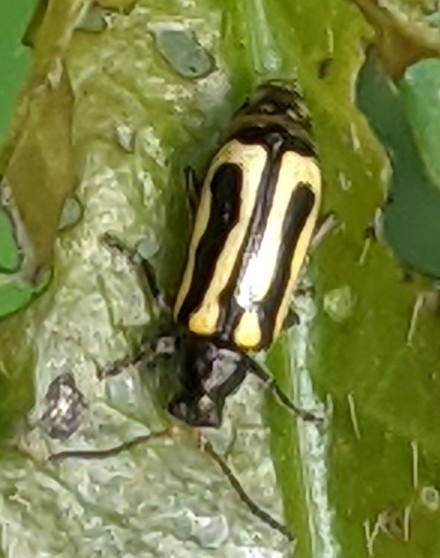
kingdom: Animalia
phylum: Arthropoda
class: Insecta
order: Coleoptera
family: Chrysomelidae
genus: Agasicles
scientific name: Agasicles hygrophila
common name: Alligatorweed flea beetle
